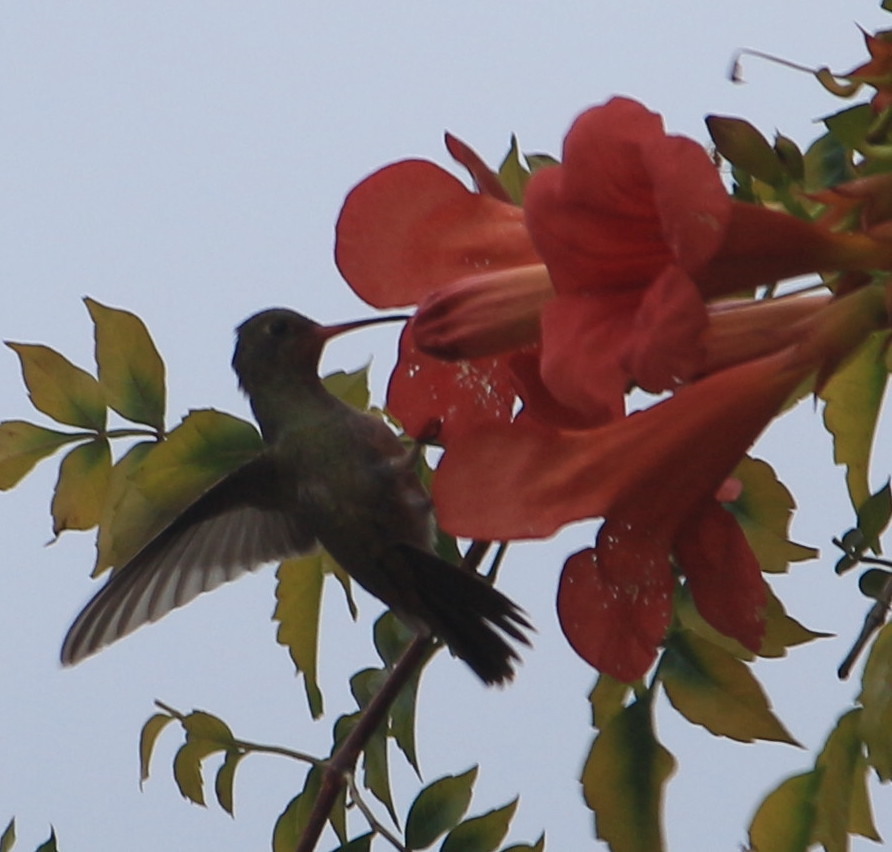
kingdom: Animalia
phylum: Chordata
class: Aves
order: Apodiformes
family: Trochilidae
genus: Hylocharis
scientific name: Hylocharis chrysura
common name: Gilded sapphire
